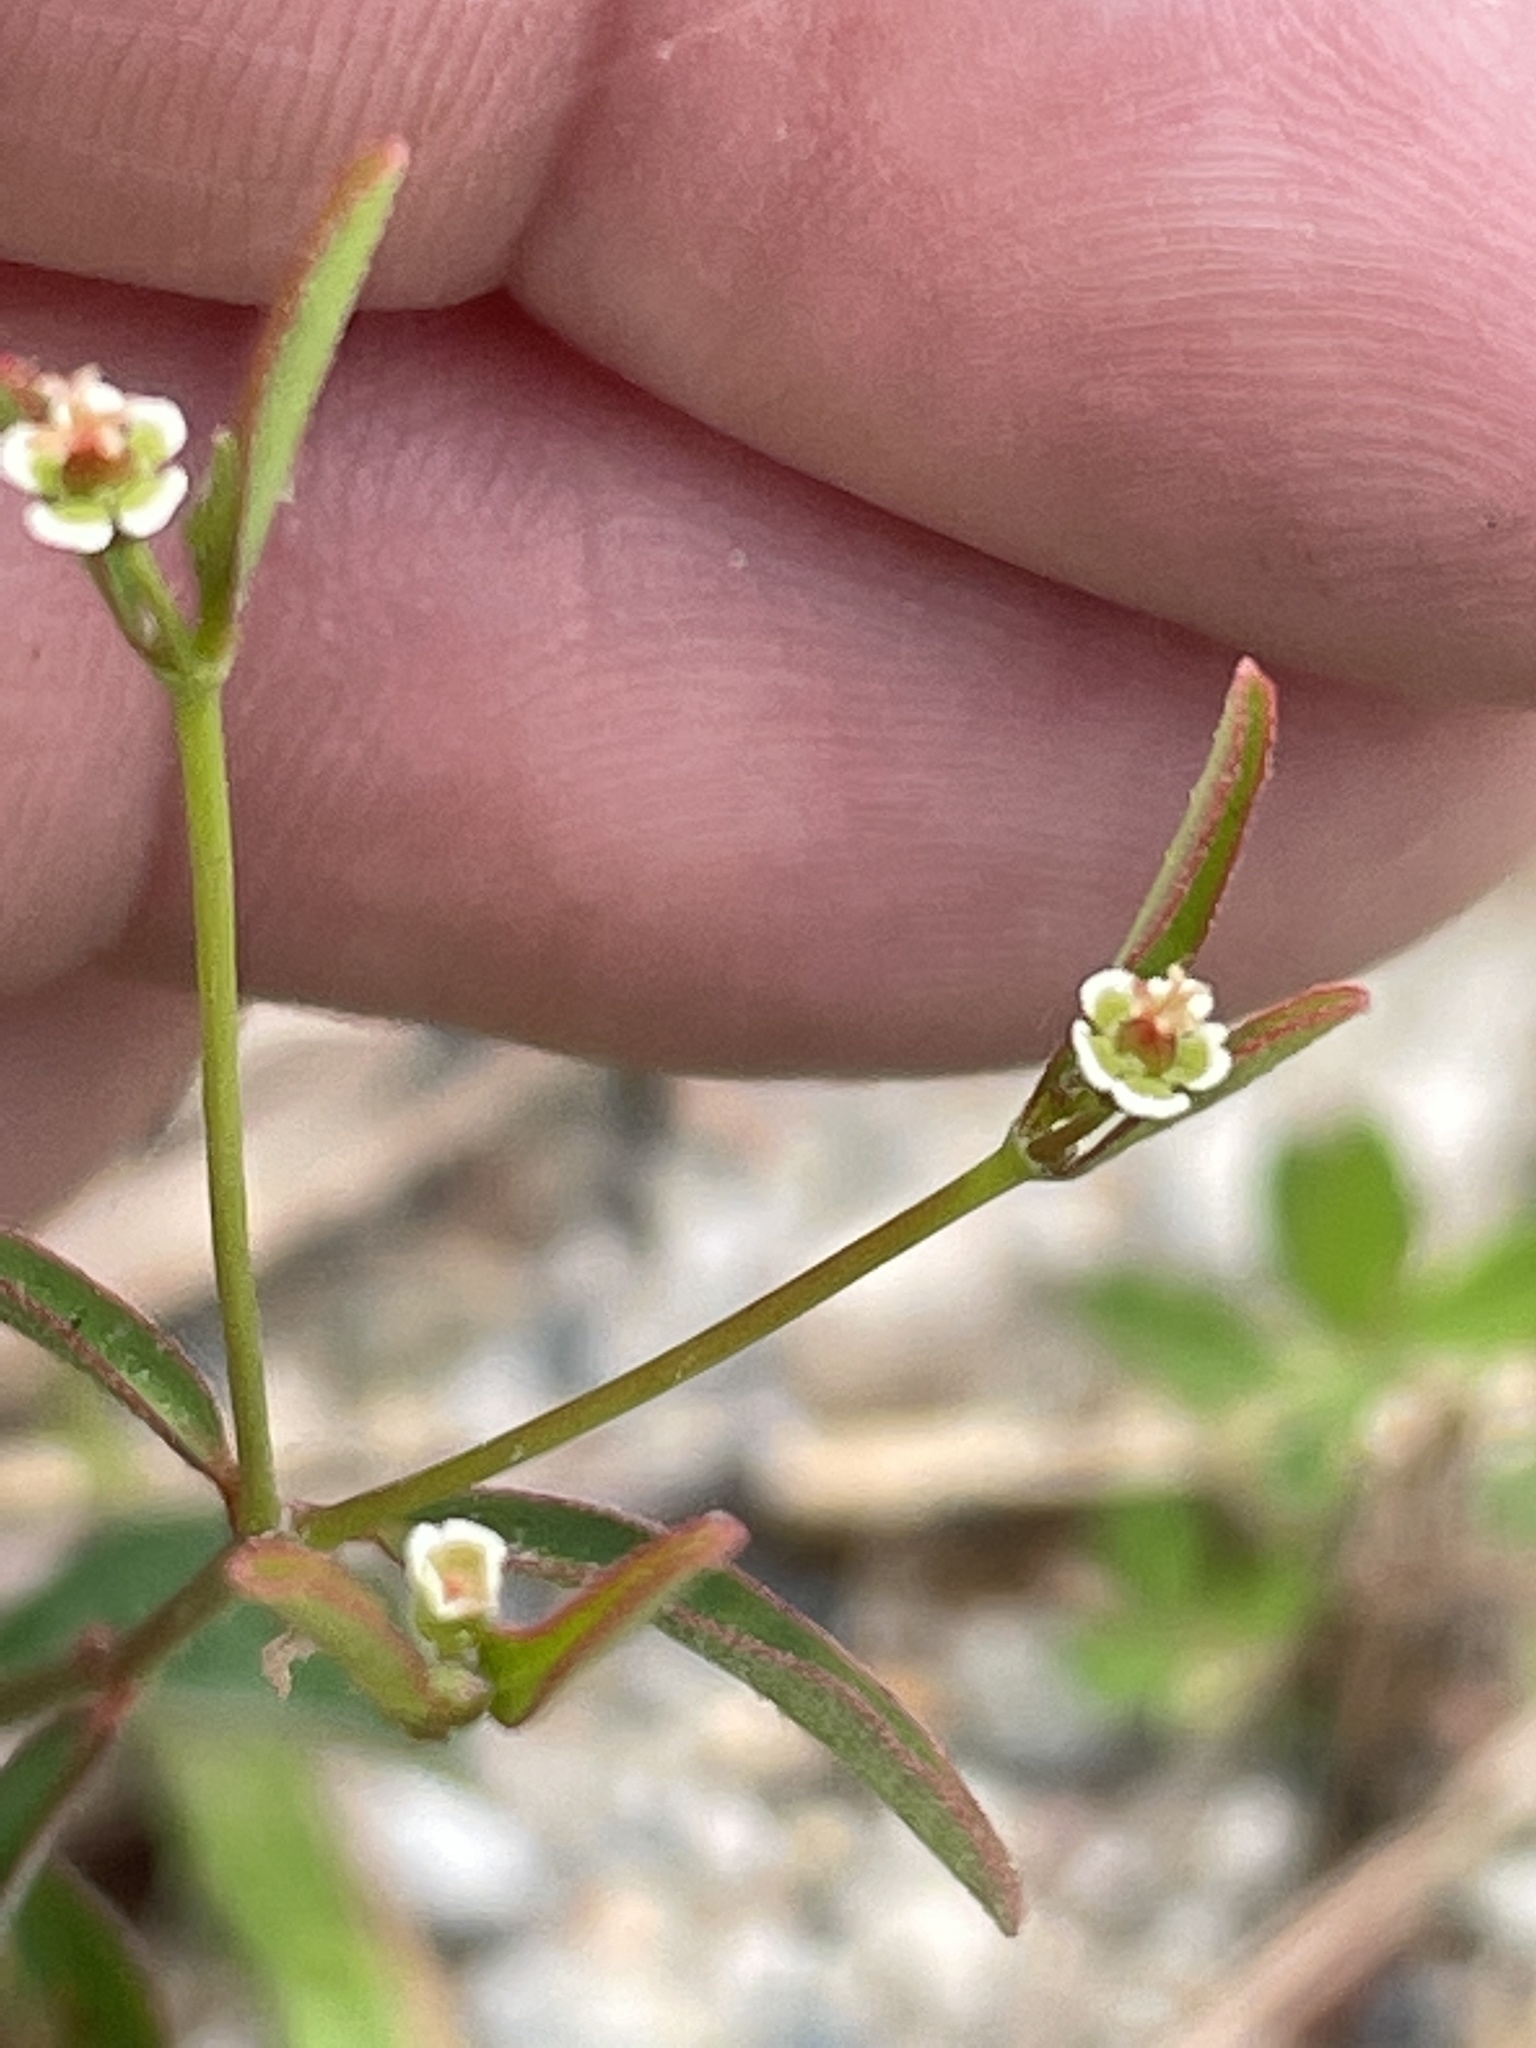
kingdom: Plantae
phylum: Tracheophyta
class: Magnoliopsida
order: Malpighiales
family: Euphorbiaceae
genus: Euphorbia
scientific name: Euphorbia curtisii
